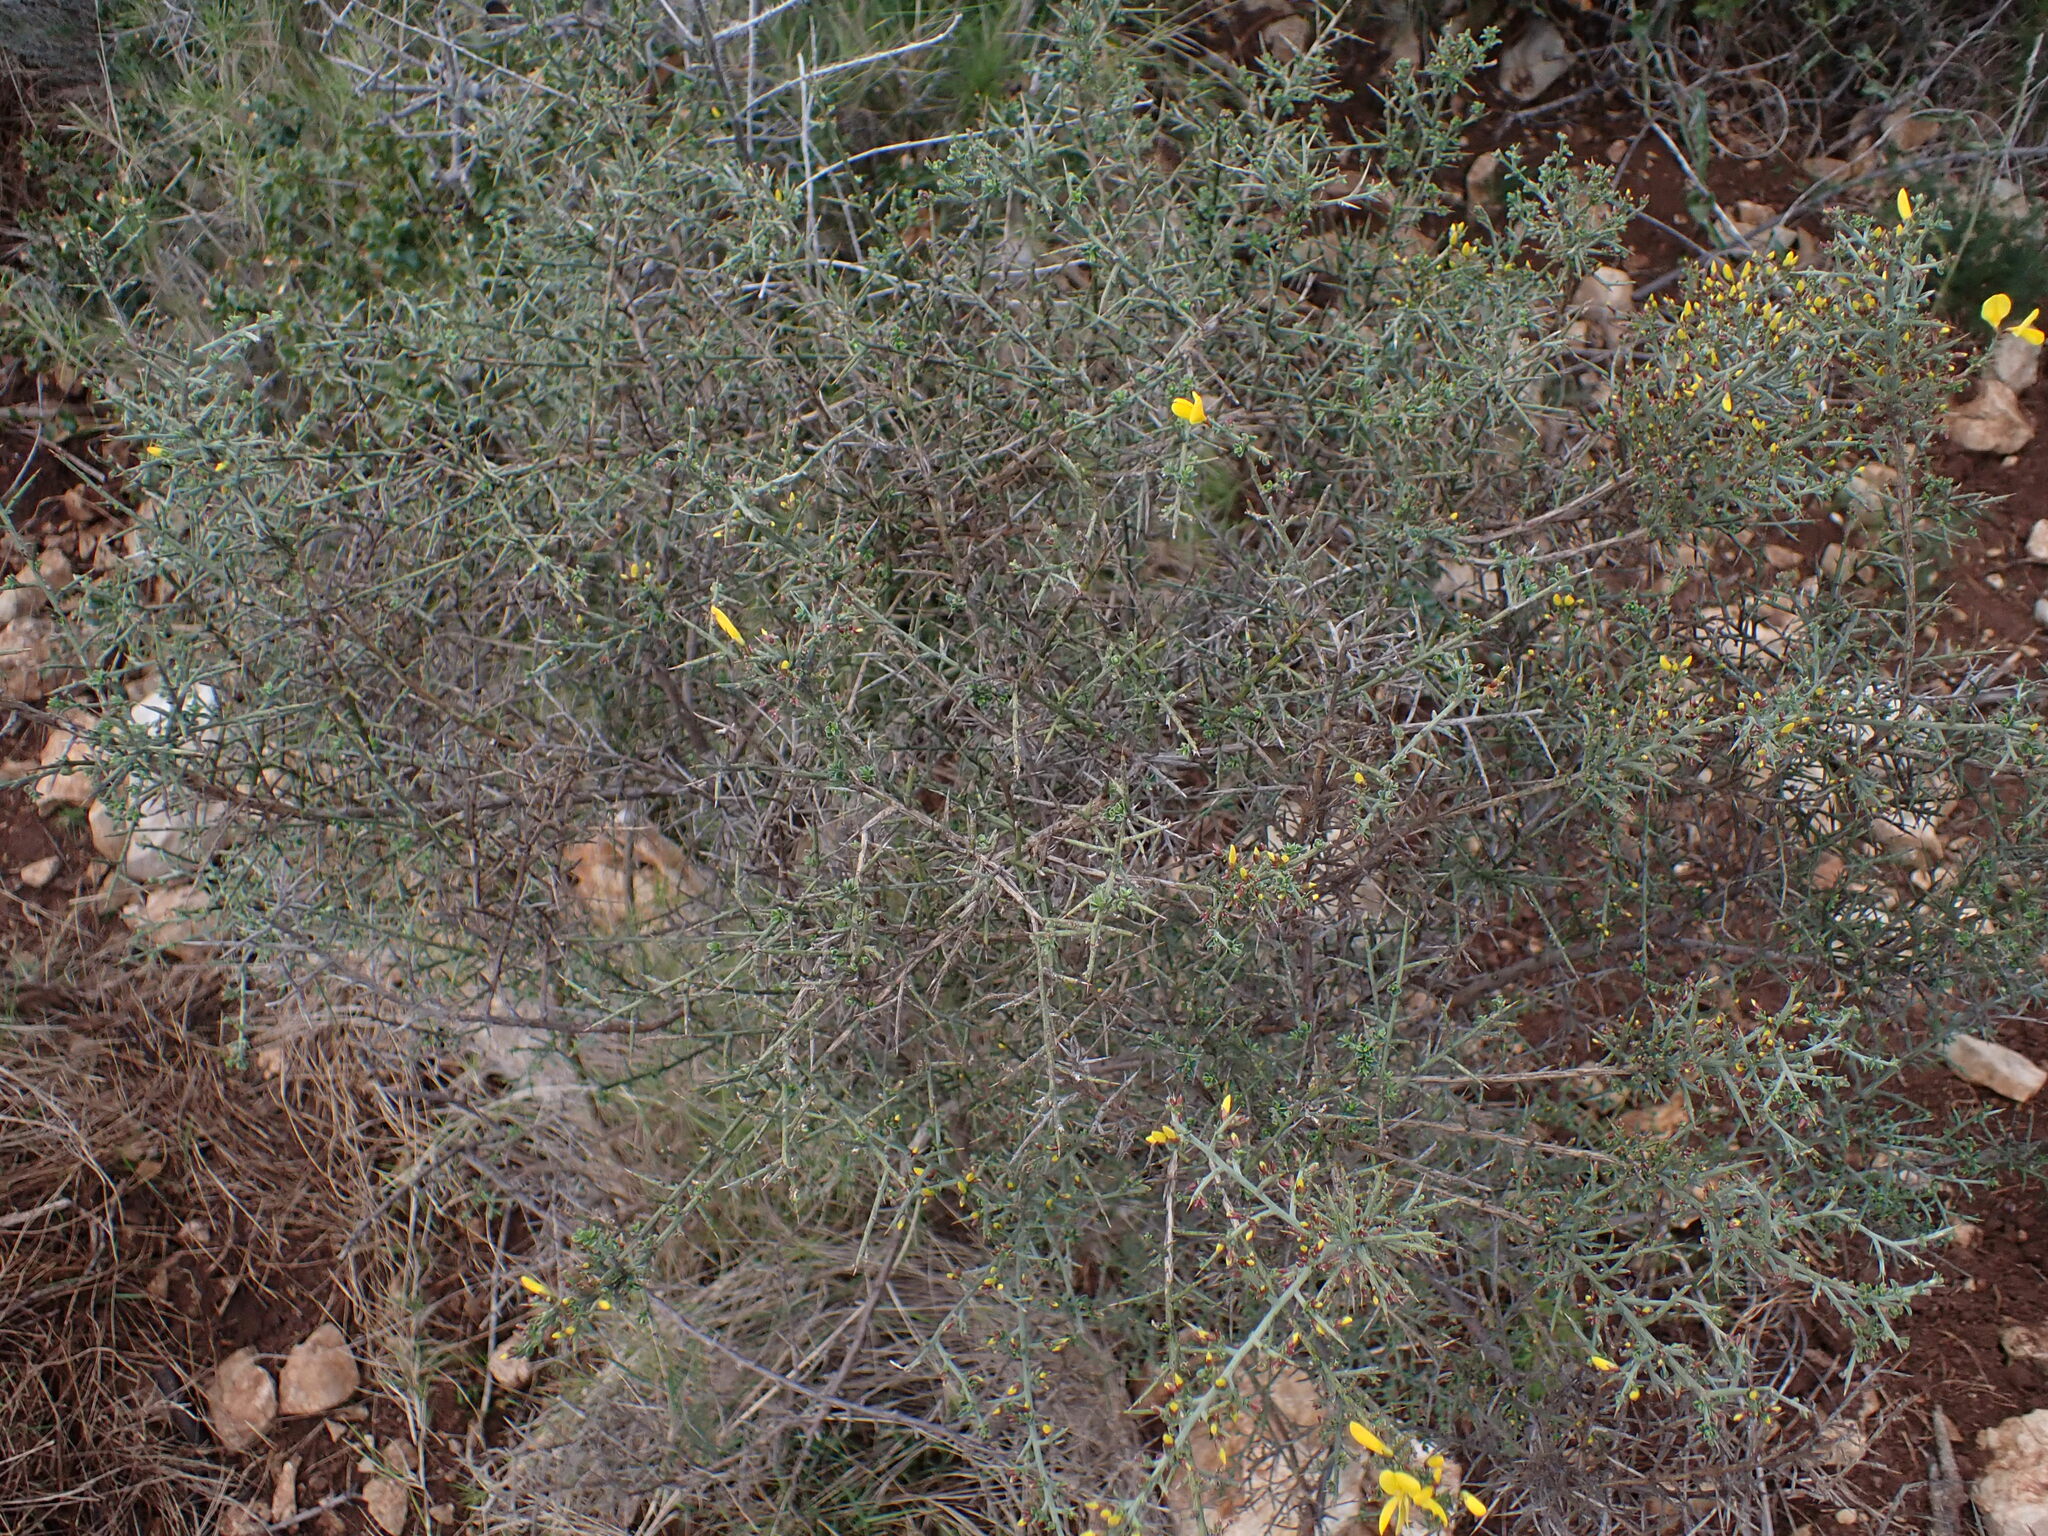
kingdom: Plantae
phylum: Tracheophyta
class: Magnoliopsida
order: Fabales
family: Fabaceae
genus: Genista
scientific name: Genista scorpius
